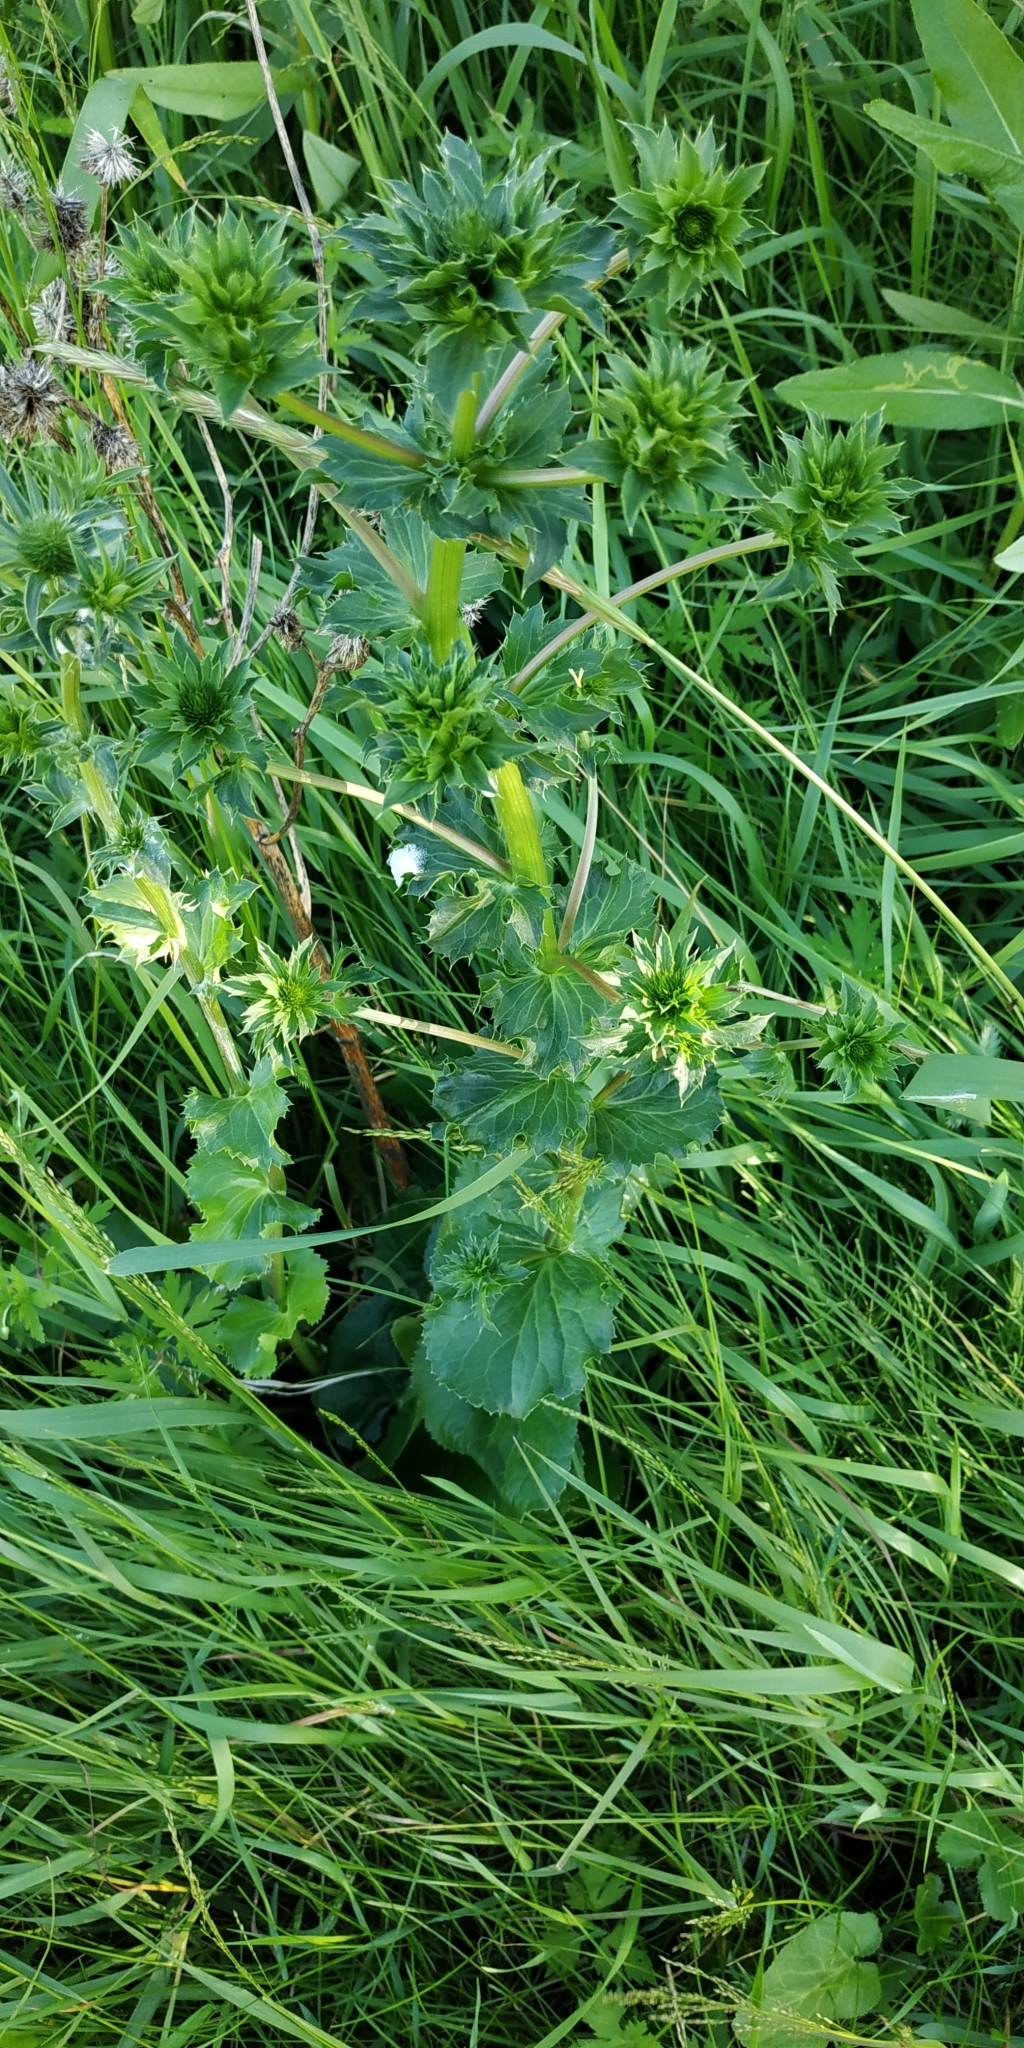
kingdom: Plantae
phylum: Tracheophyta
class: Magnoliopsida
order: Apiales
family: Apiaceae
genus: Eryngium
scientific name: Eryngium planum
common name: Blue eryngo
